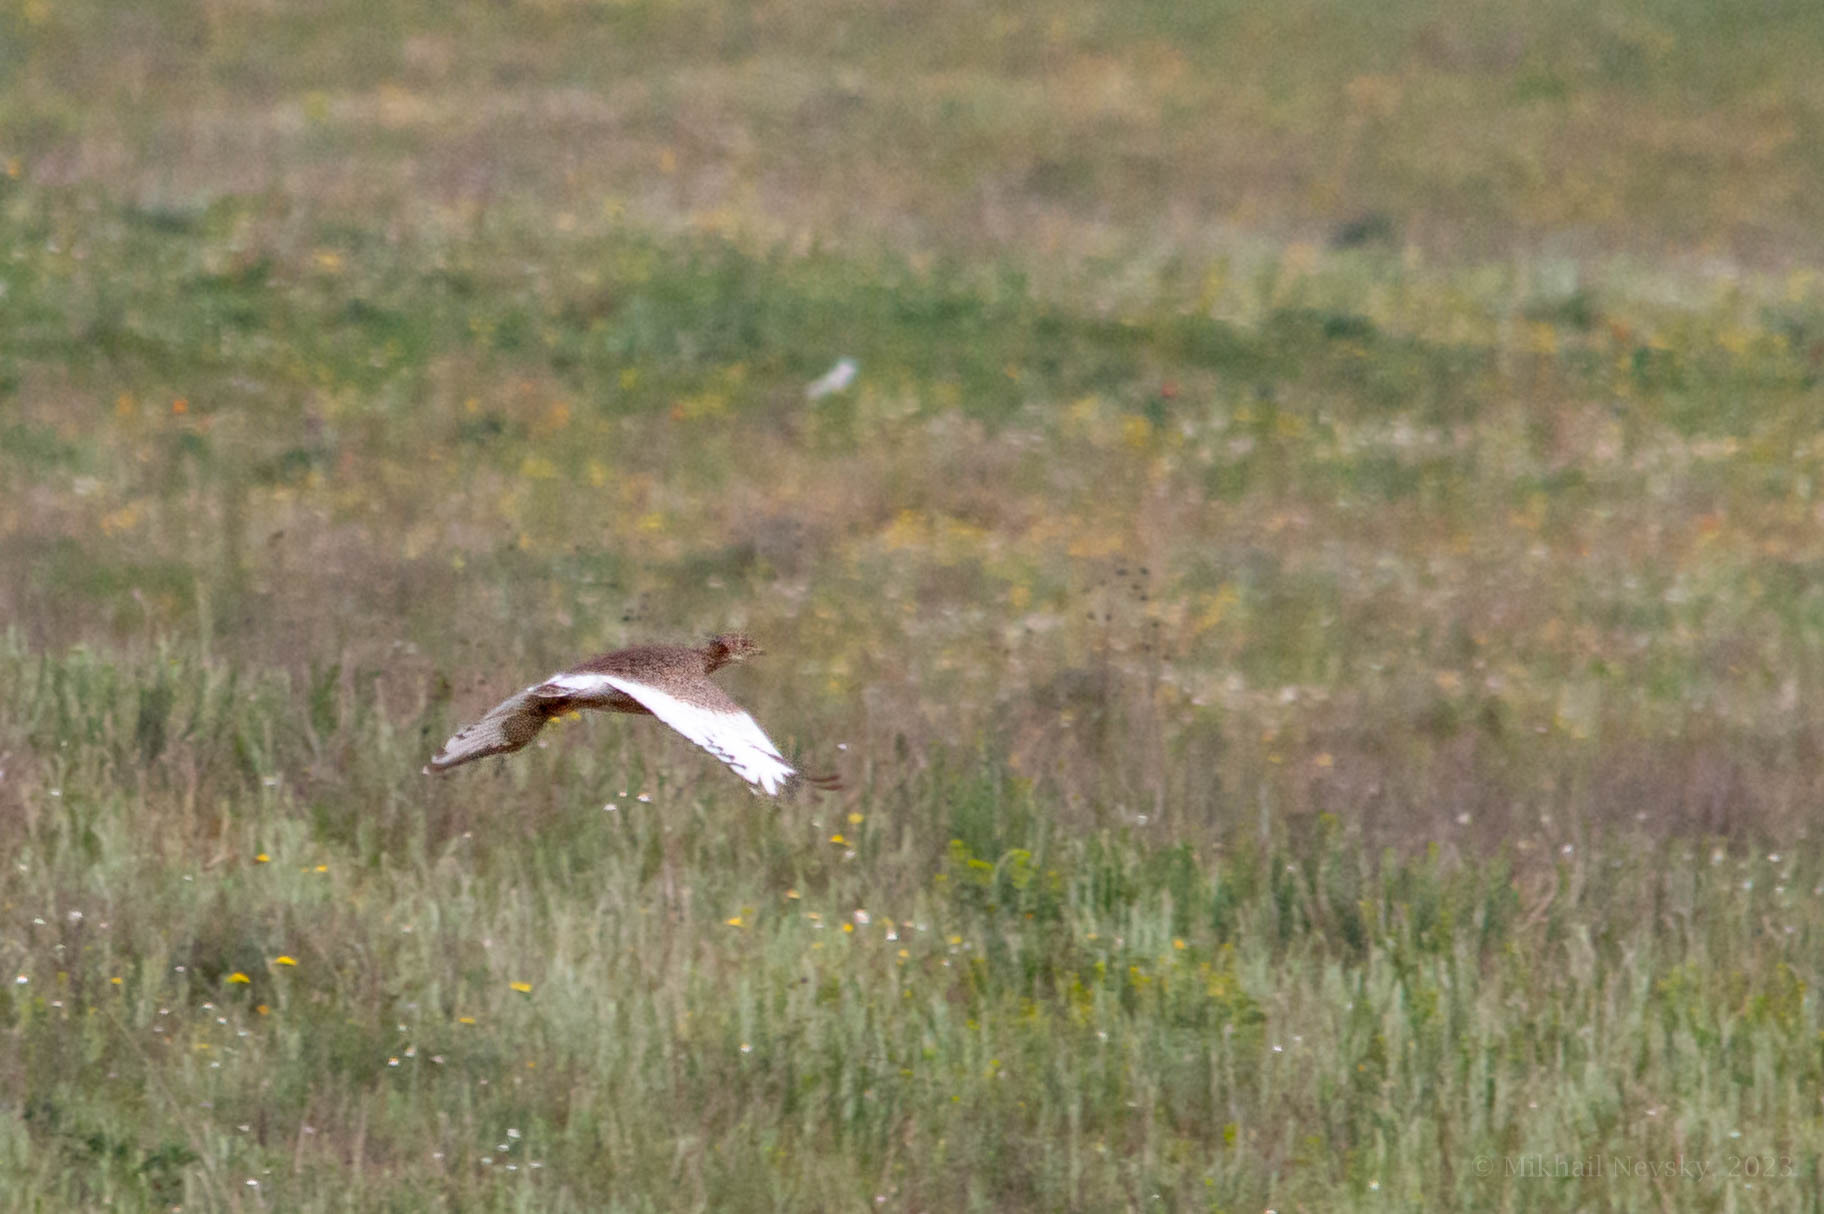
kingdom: Animalia
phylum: Chordata
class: Aves
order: Otidiformes
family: Otididae
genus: Tetrax
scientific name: Tetrax tetrax
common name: Little bustard
